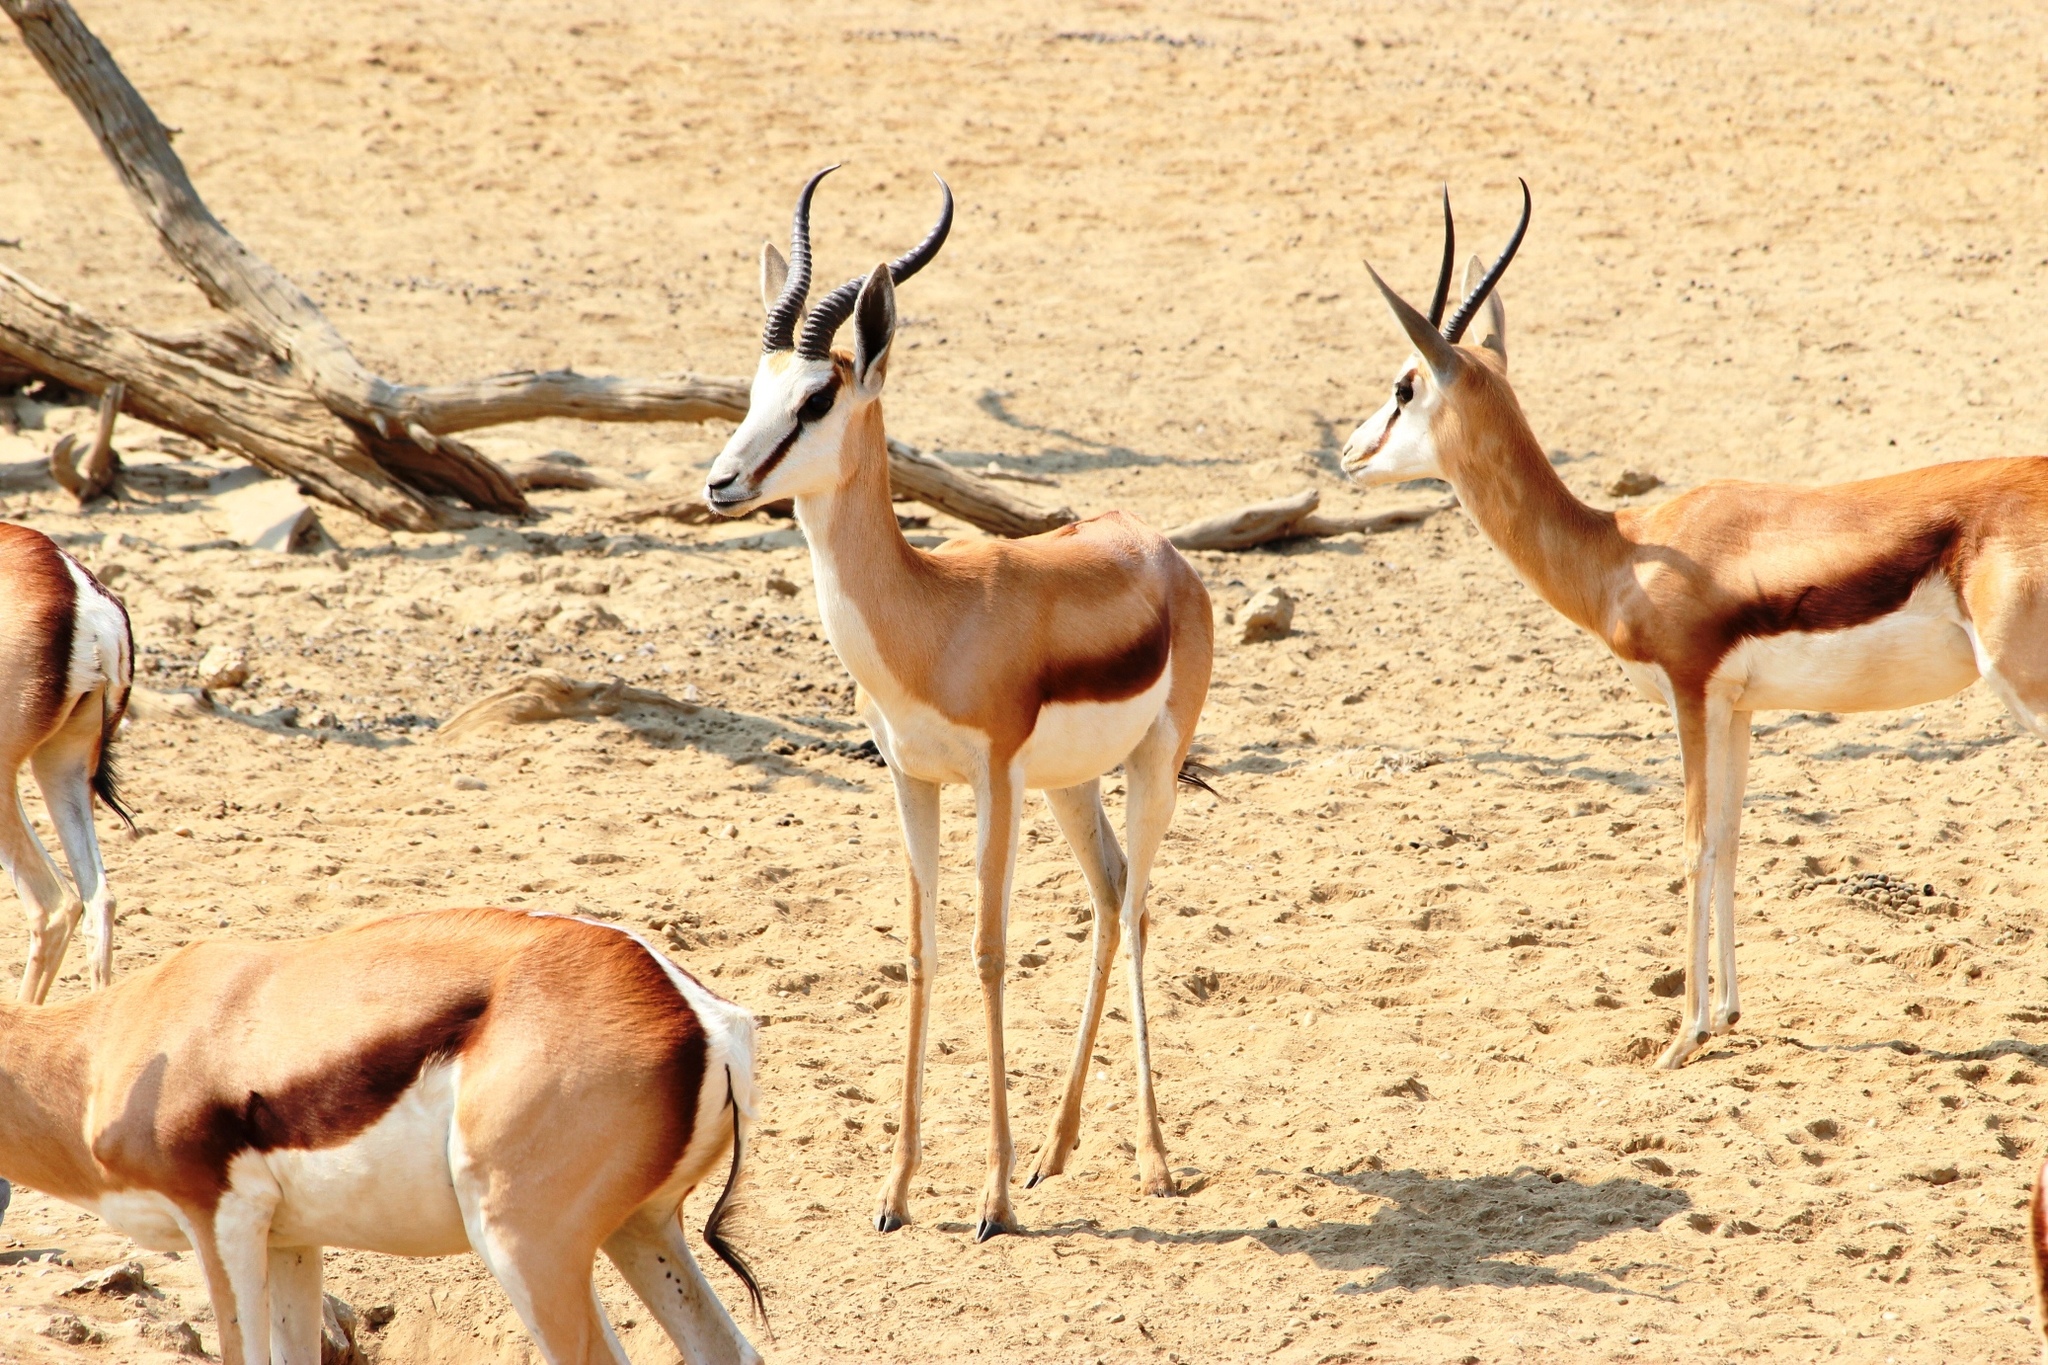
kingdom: Animalia
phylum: Chordata
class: Mammalia
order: Artiodactyla
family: Bovidae
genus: Antidorcas
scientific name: Antidorcas marsupialis
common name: Springbok
